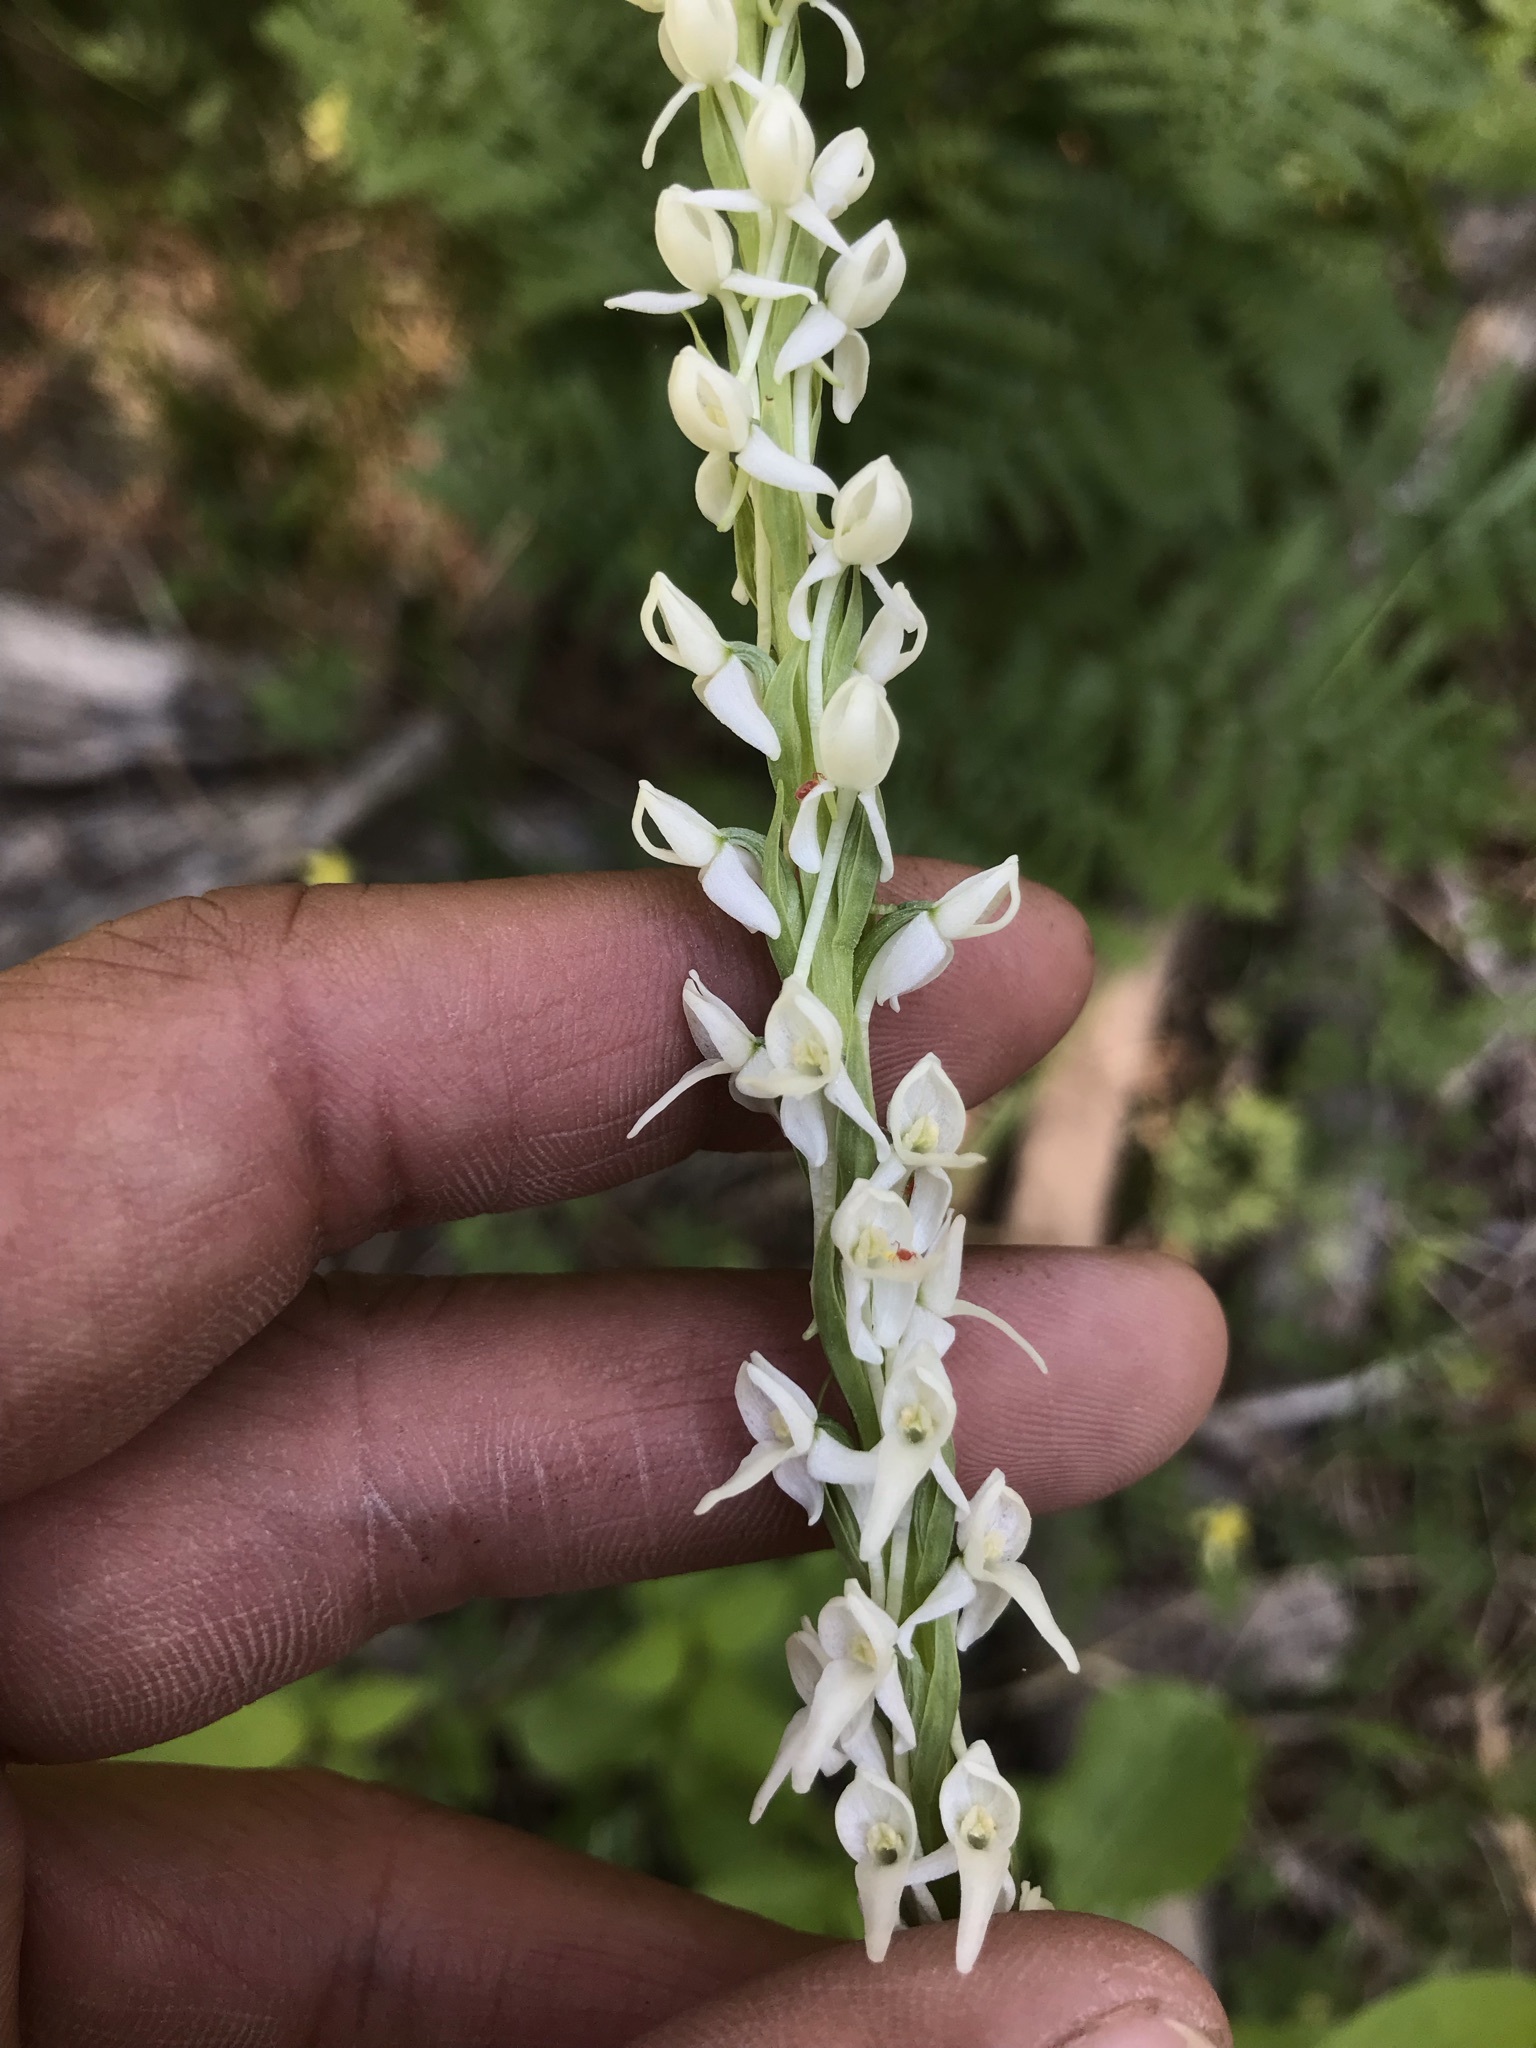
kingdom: Plantae
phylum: Tracheophyta
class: Liliopsida
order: Asparagales
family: Orchidaceae
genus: Platanthera
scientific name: Platanthera dilatata
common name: Bog candles
